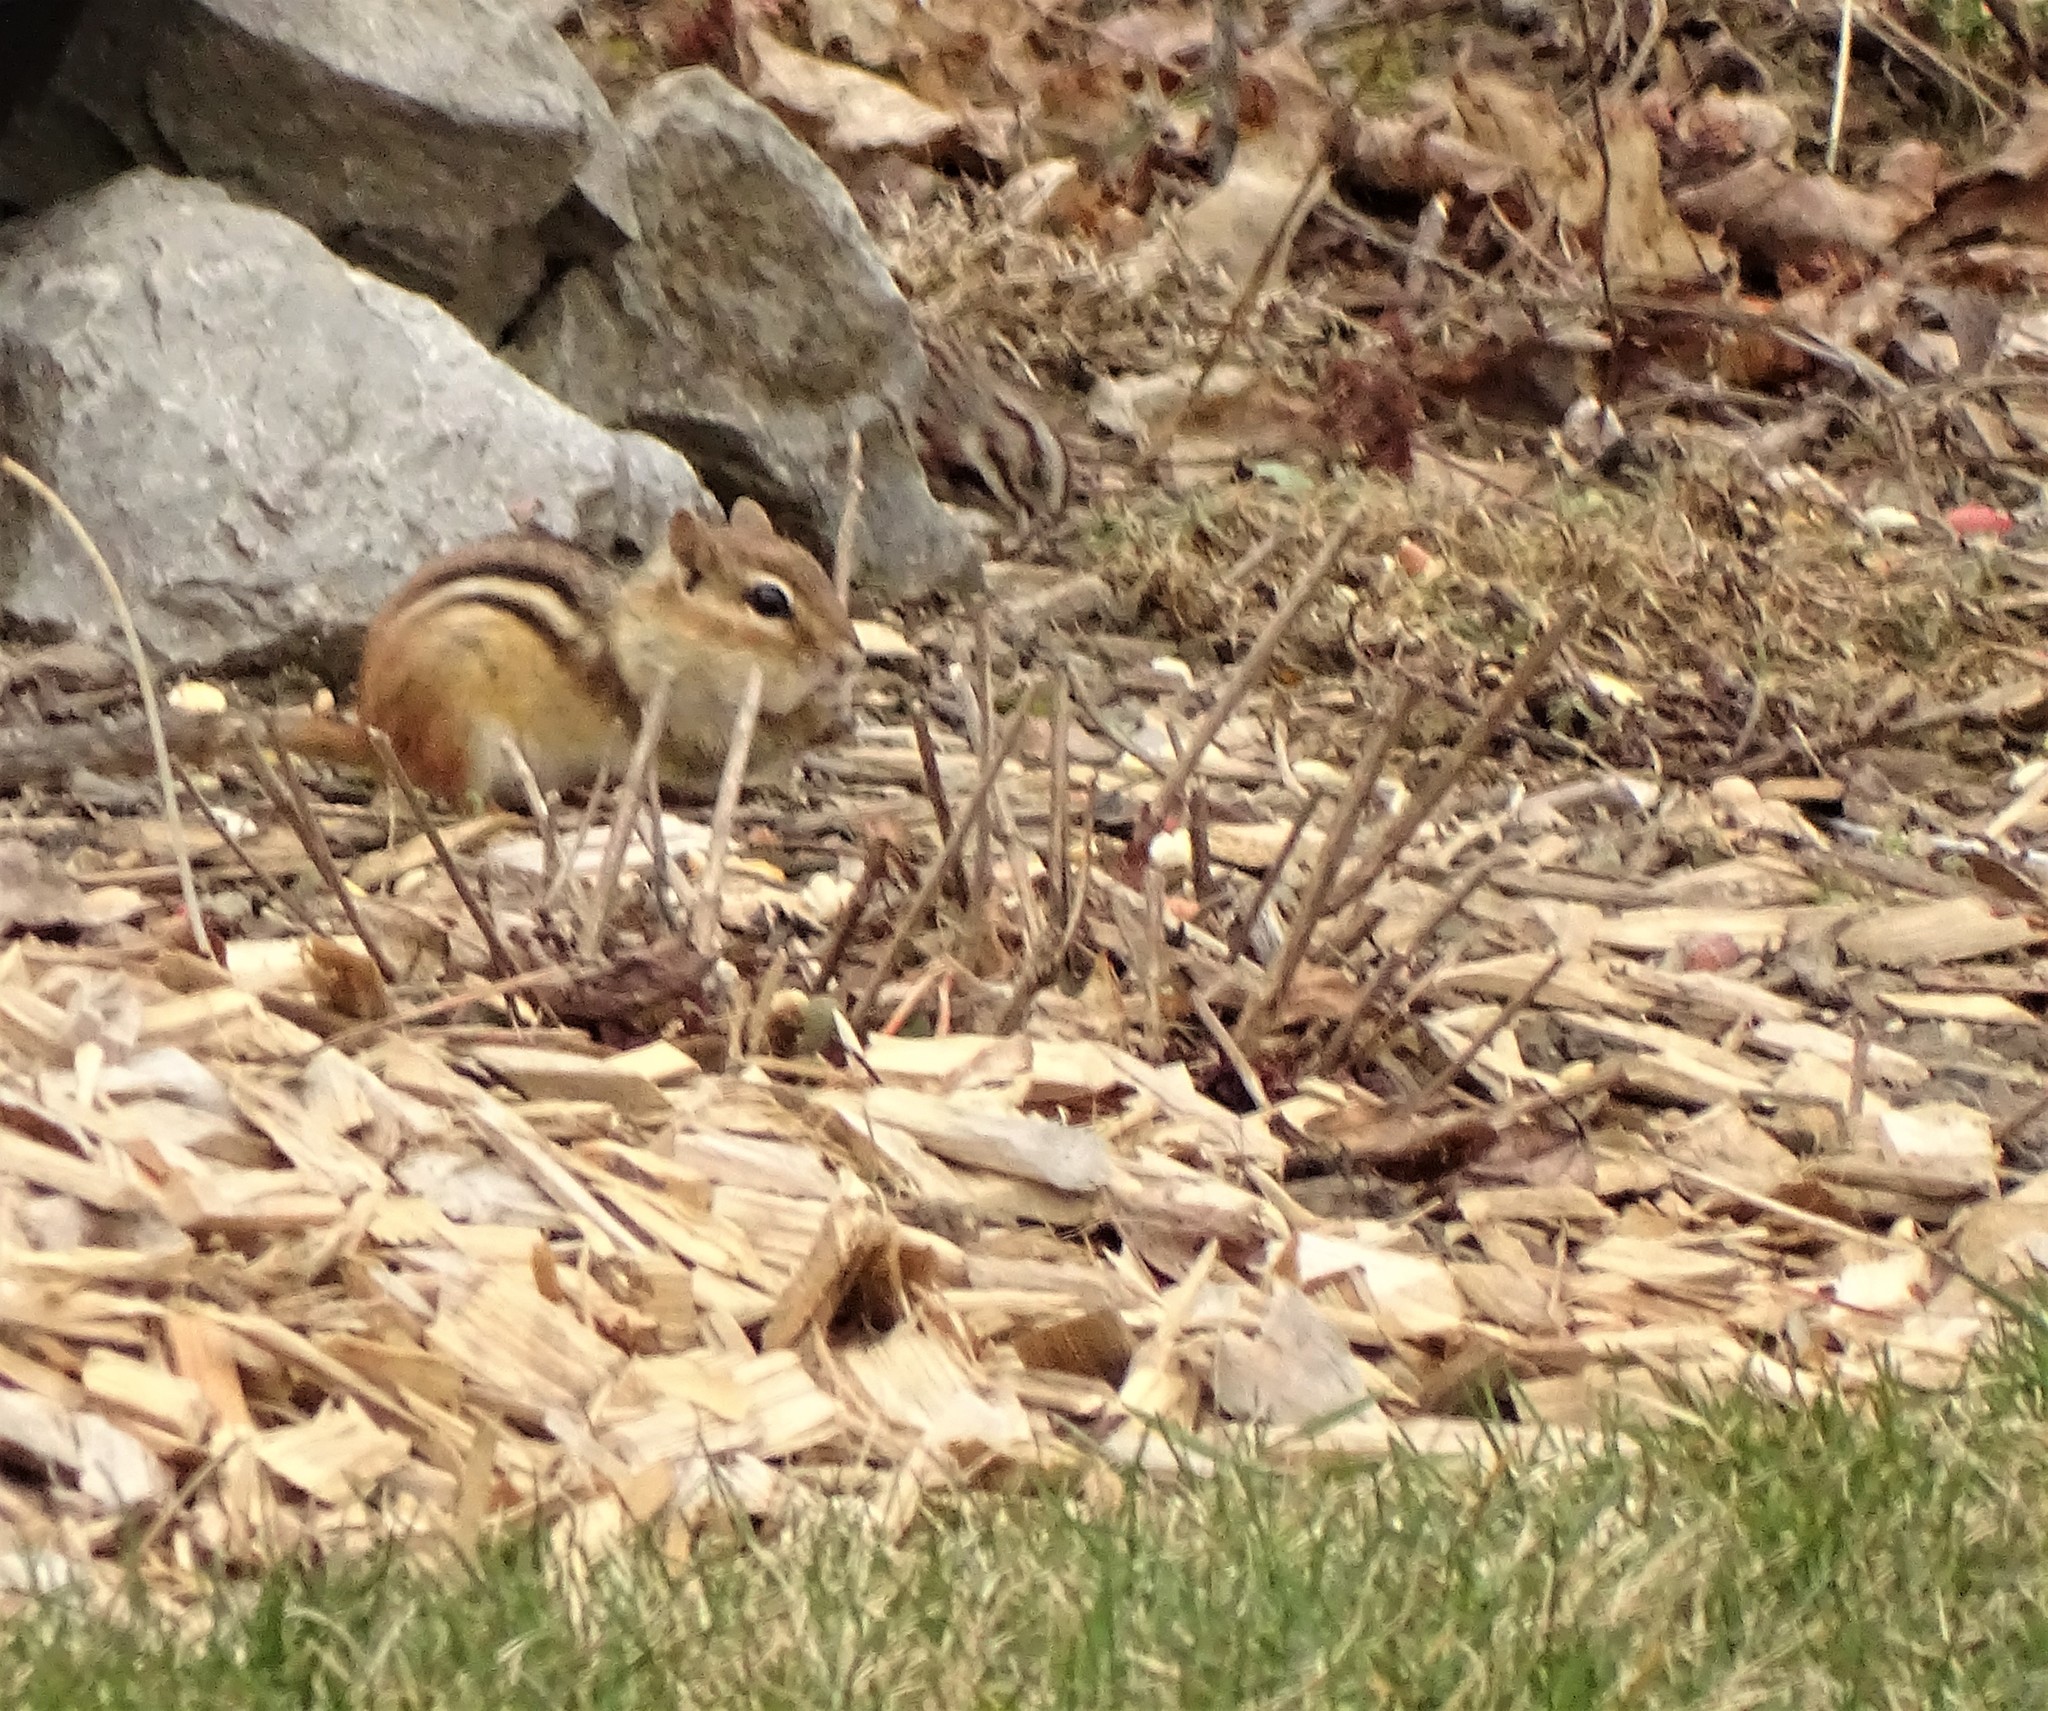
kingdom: Animalia
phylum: Chordata
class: Mammalia
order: Rodentia
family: Sciuridae
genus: Tamias
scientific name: Tamias striatus
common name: Eastern chipmunk
